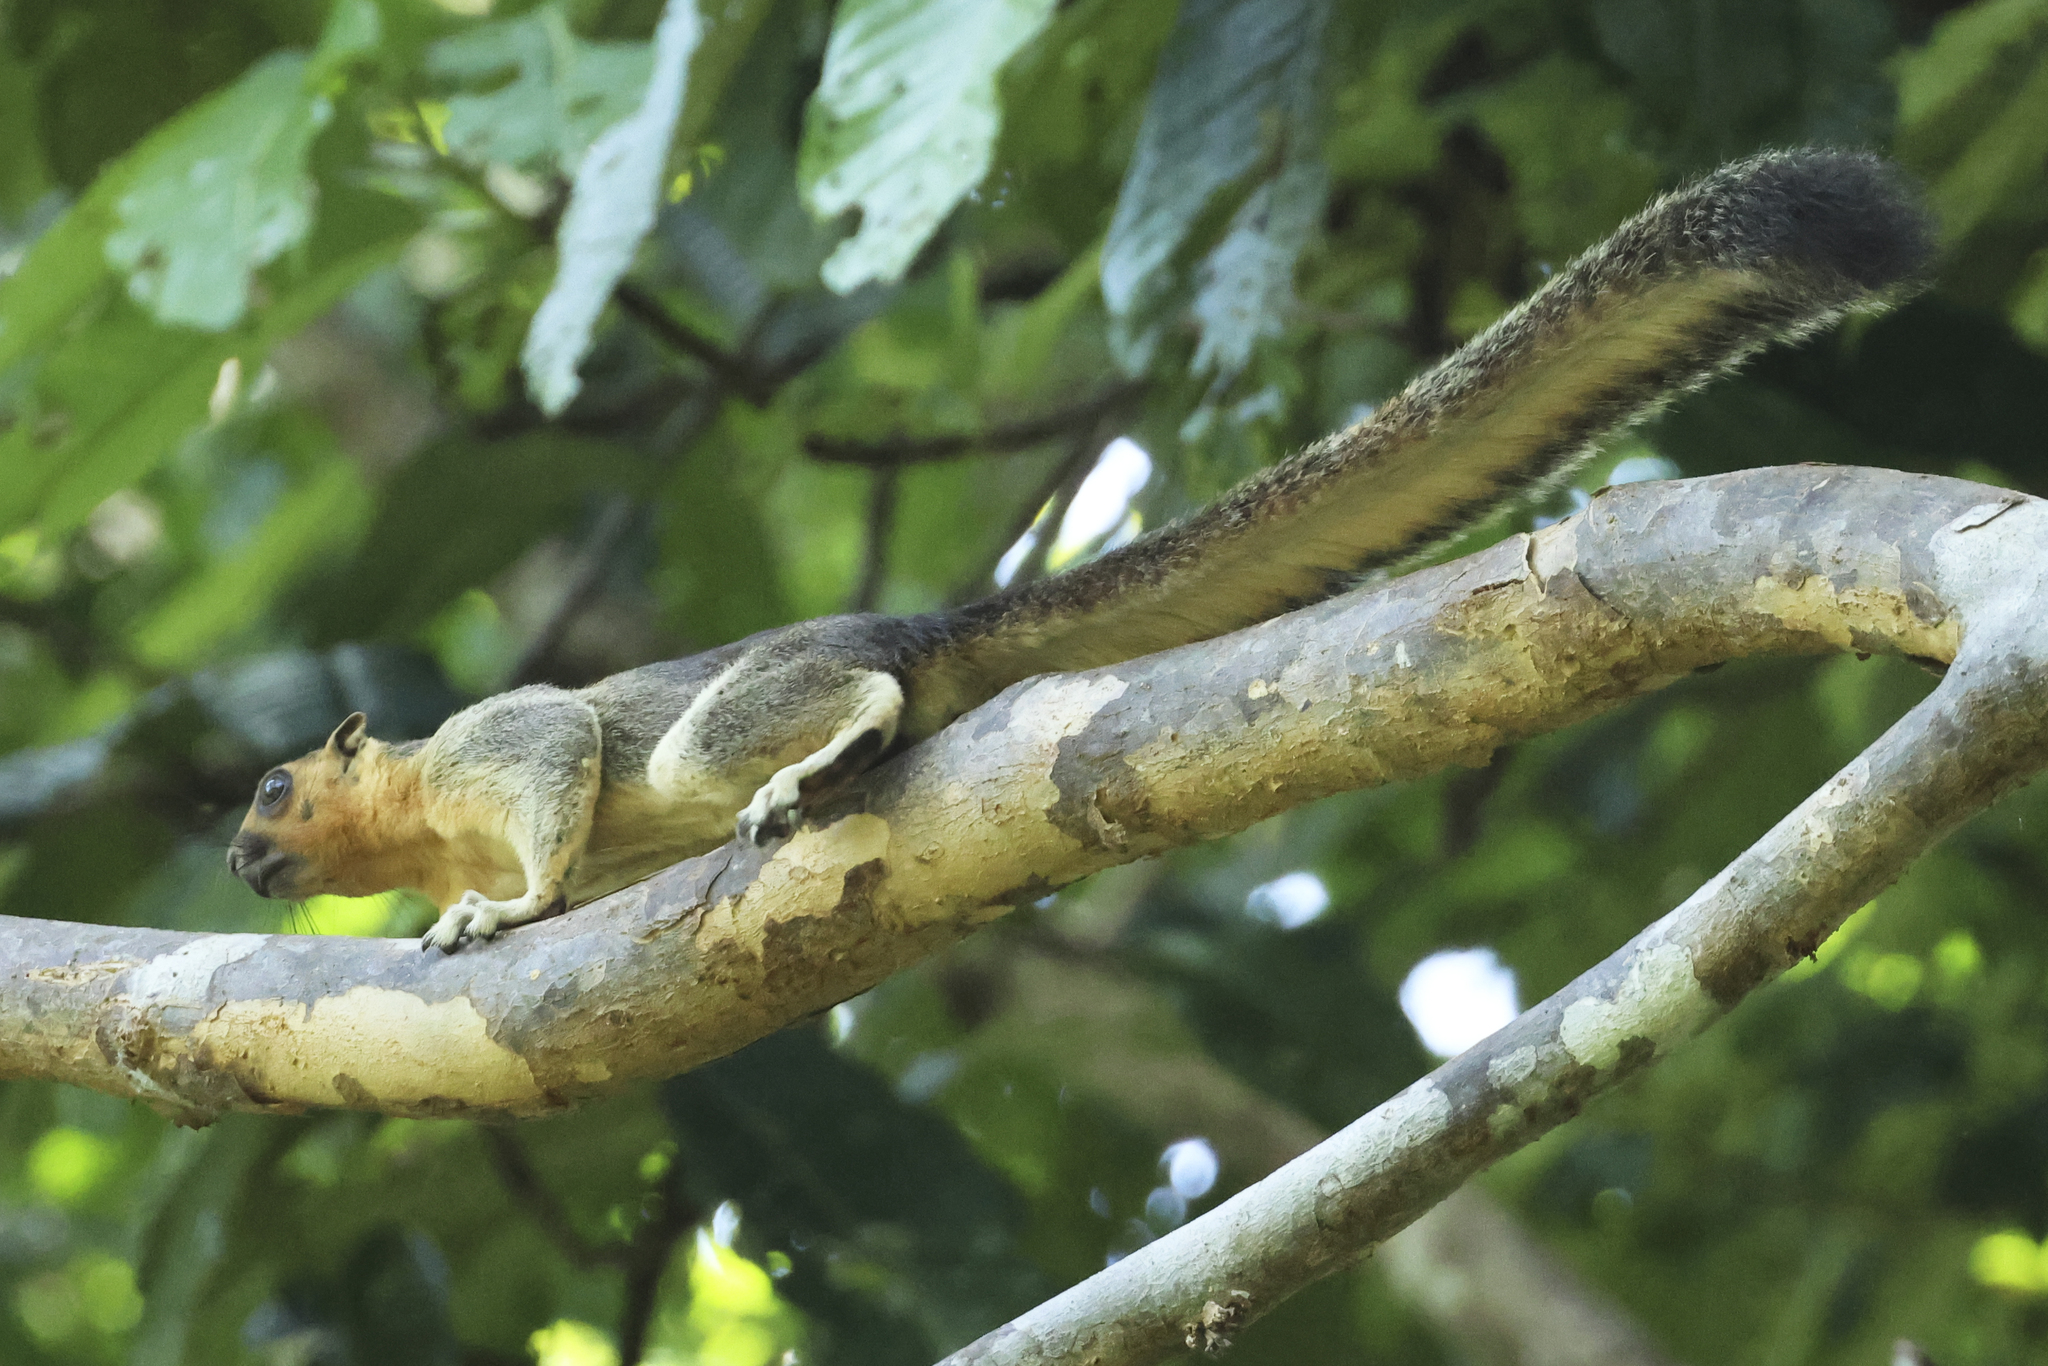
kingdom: Animalia
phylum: Chordata
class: Mammalia
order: Rodentia
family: Sciuridae
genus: Ratufa
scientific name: Ratufa affinis
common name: Pale giant squirrel
